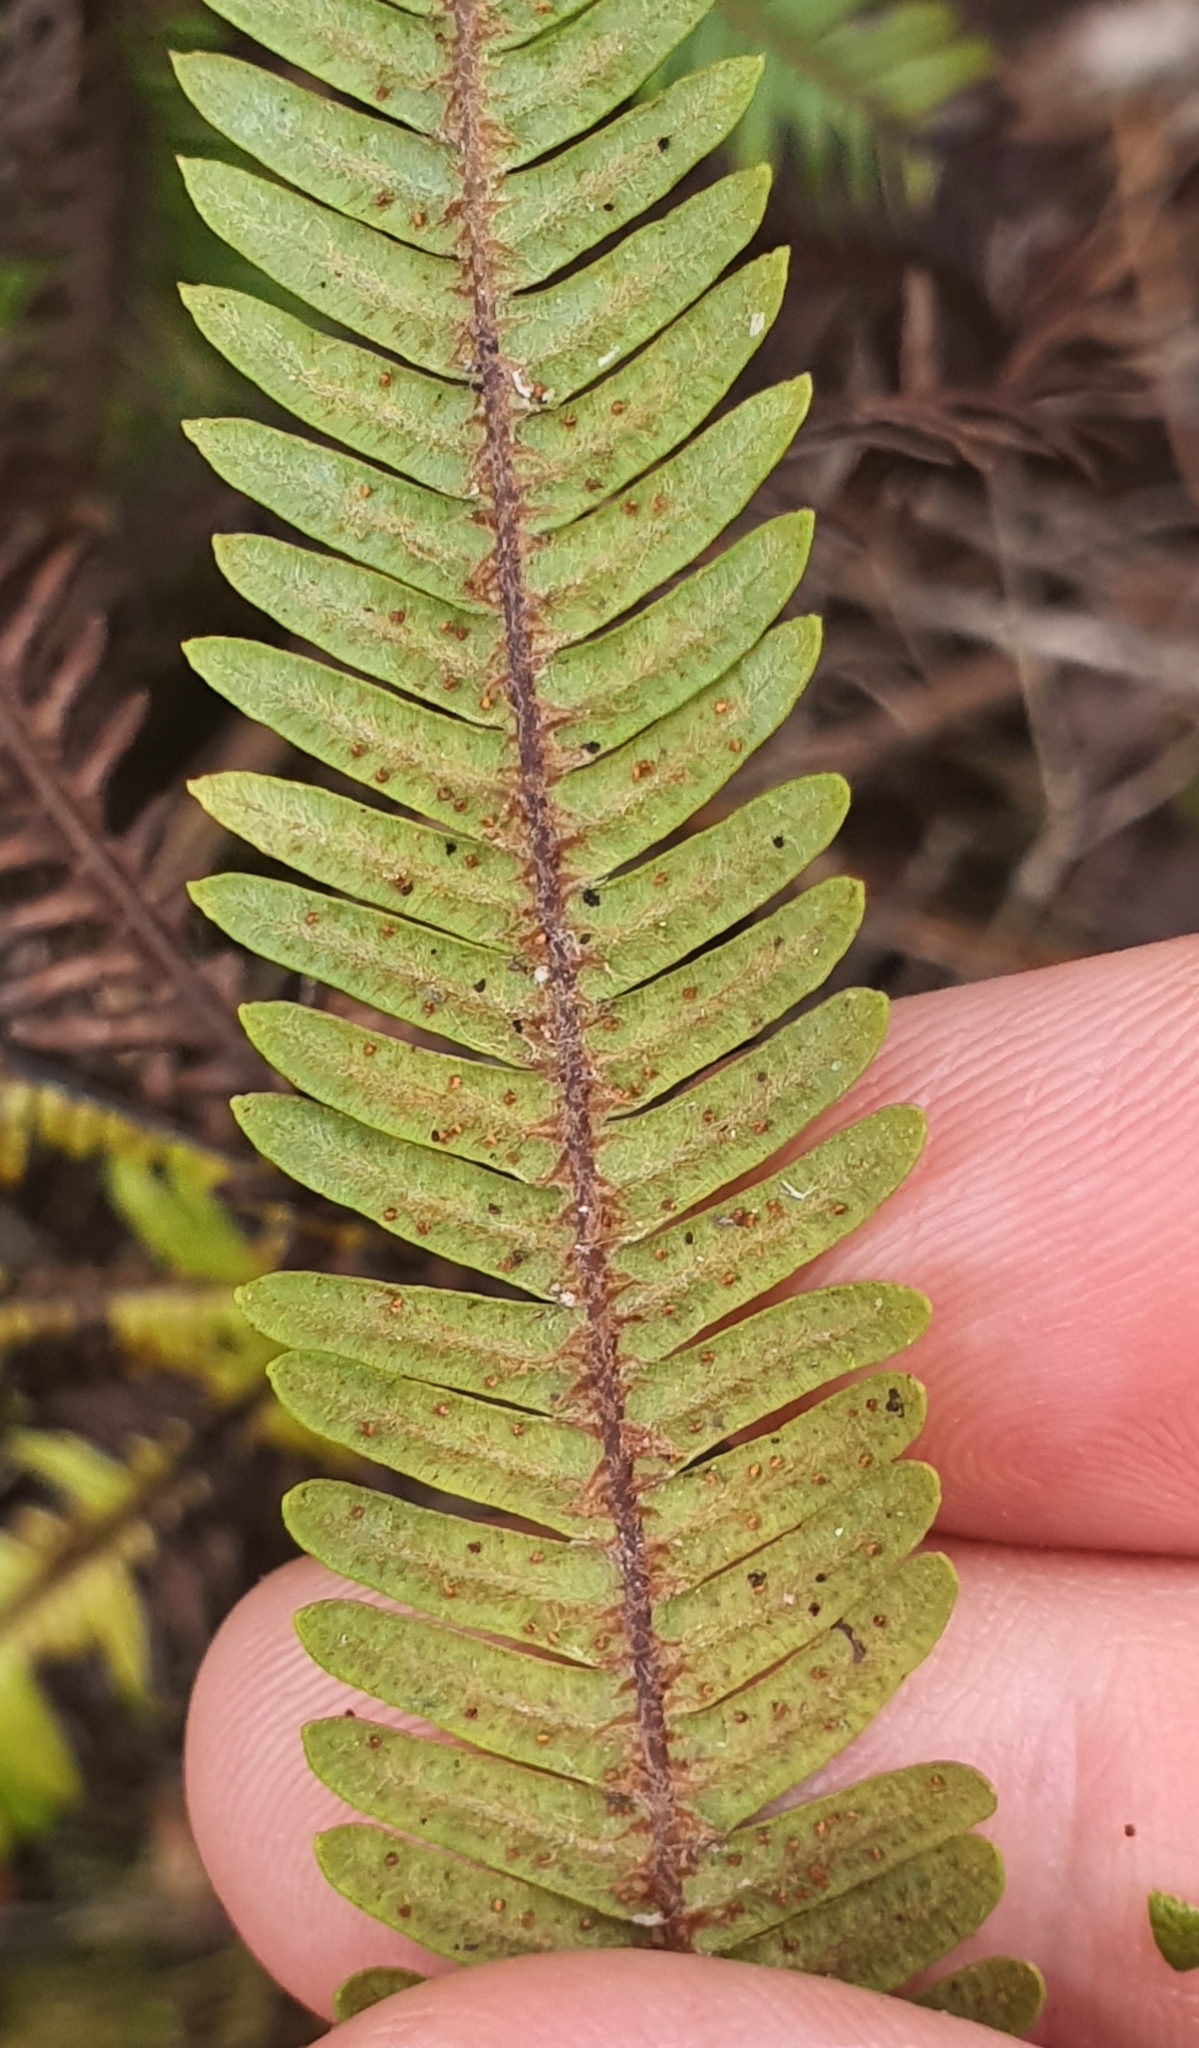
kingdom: Plantae
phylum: Tracheophyta
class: Polypodiopsida
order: Gleicheniales
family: Gleicheniaceae
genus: Sticherus
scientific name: Sticherus cunninghamii
